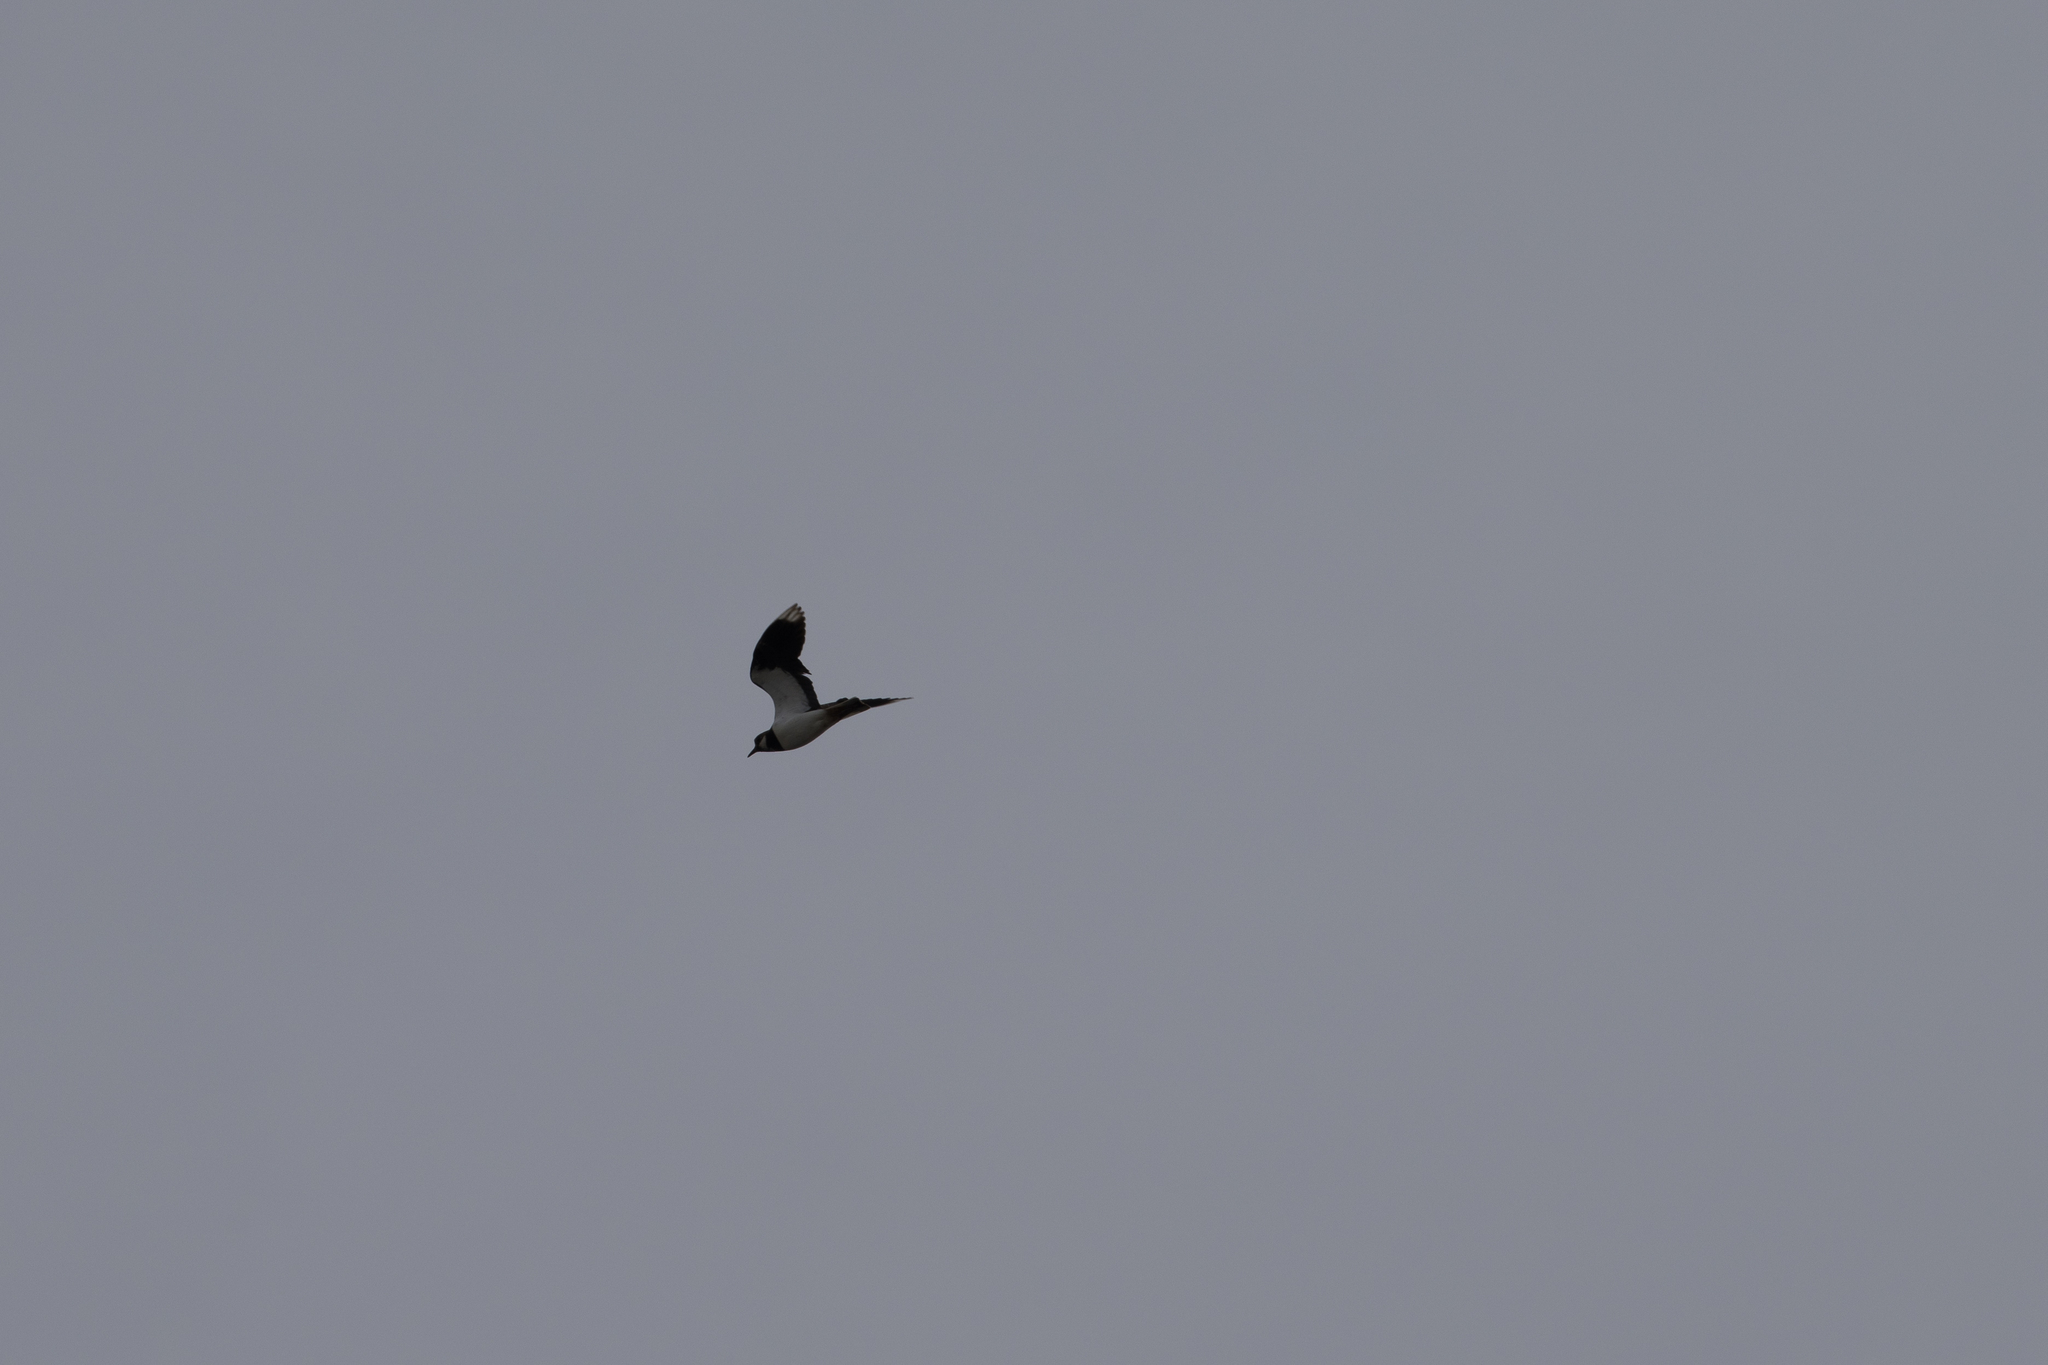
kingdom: Animalia
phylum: Chordata
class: Aves
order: Charadriiformes
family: Charadriidae
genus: Vanellus
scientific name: Vanellus vanellus
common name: Northern lapwing
